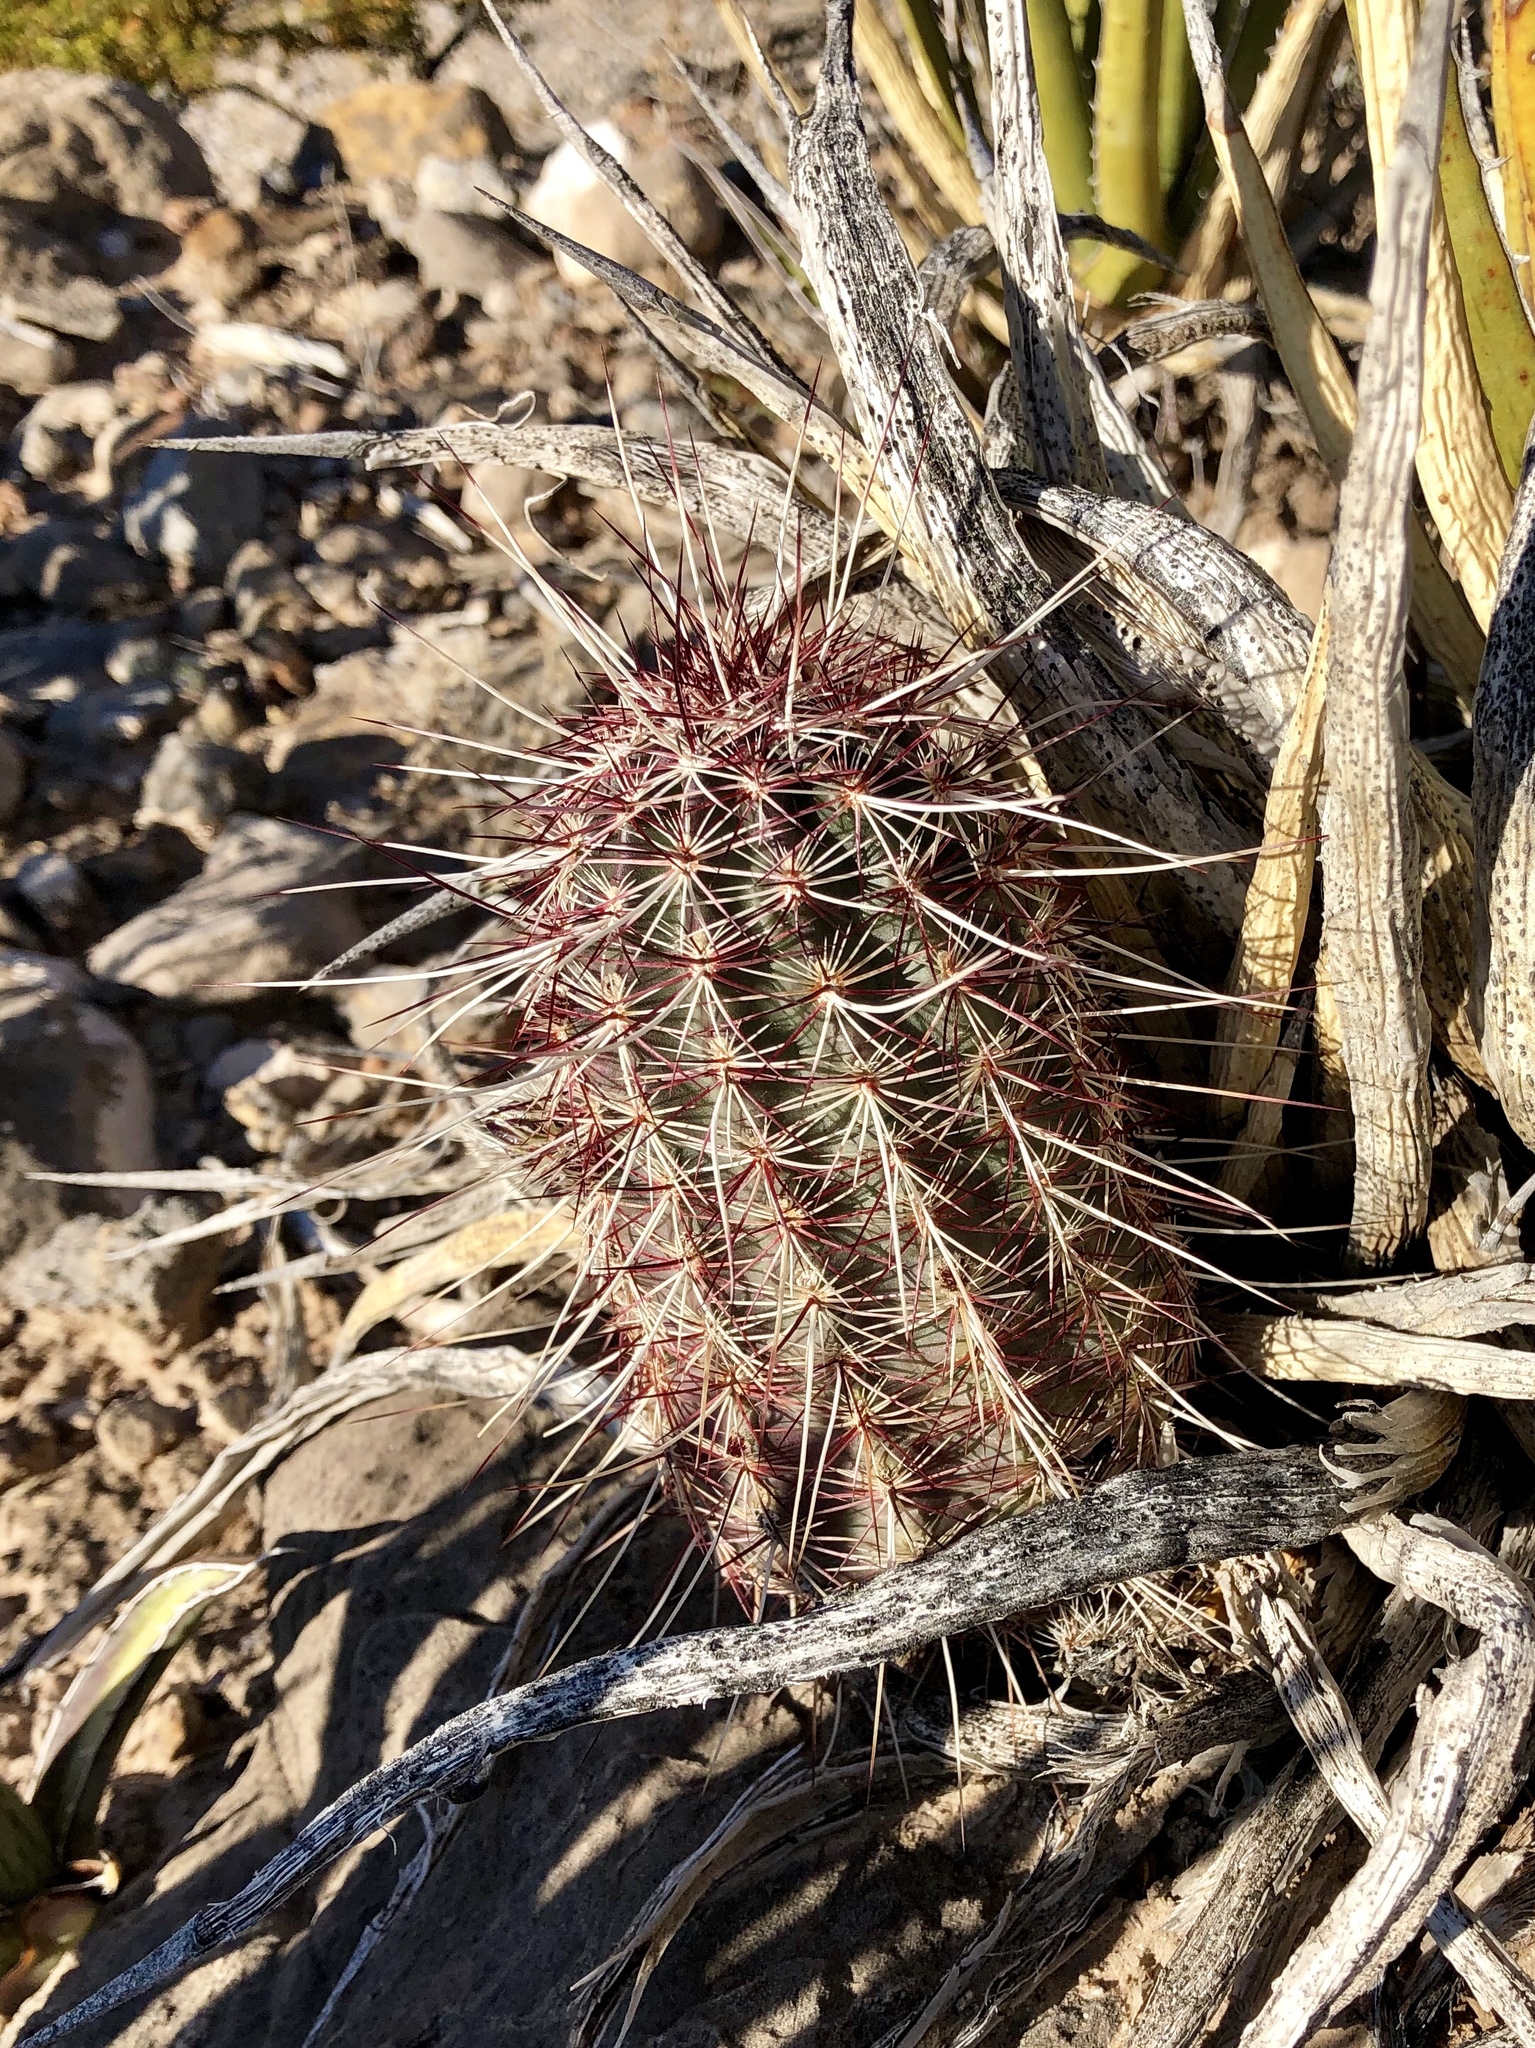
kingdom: Plantae
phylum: Tracheophyta
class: Magnoliopsida
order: Caryophyllales
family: Cactaceae
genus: Echinocereus
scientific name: Echinocereus viridiflorus
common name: Nylon hedgehog cactus
